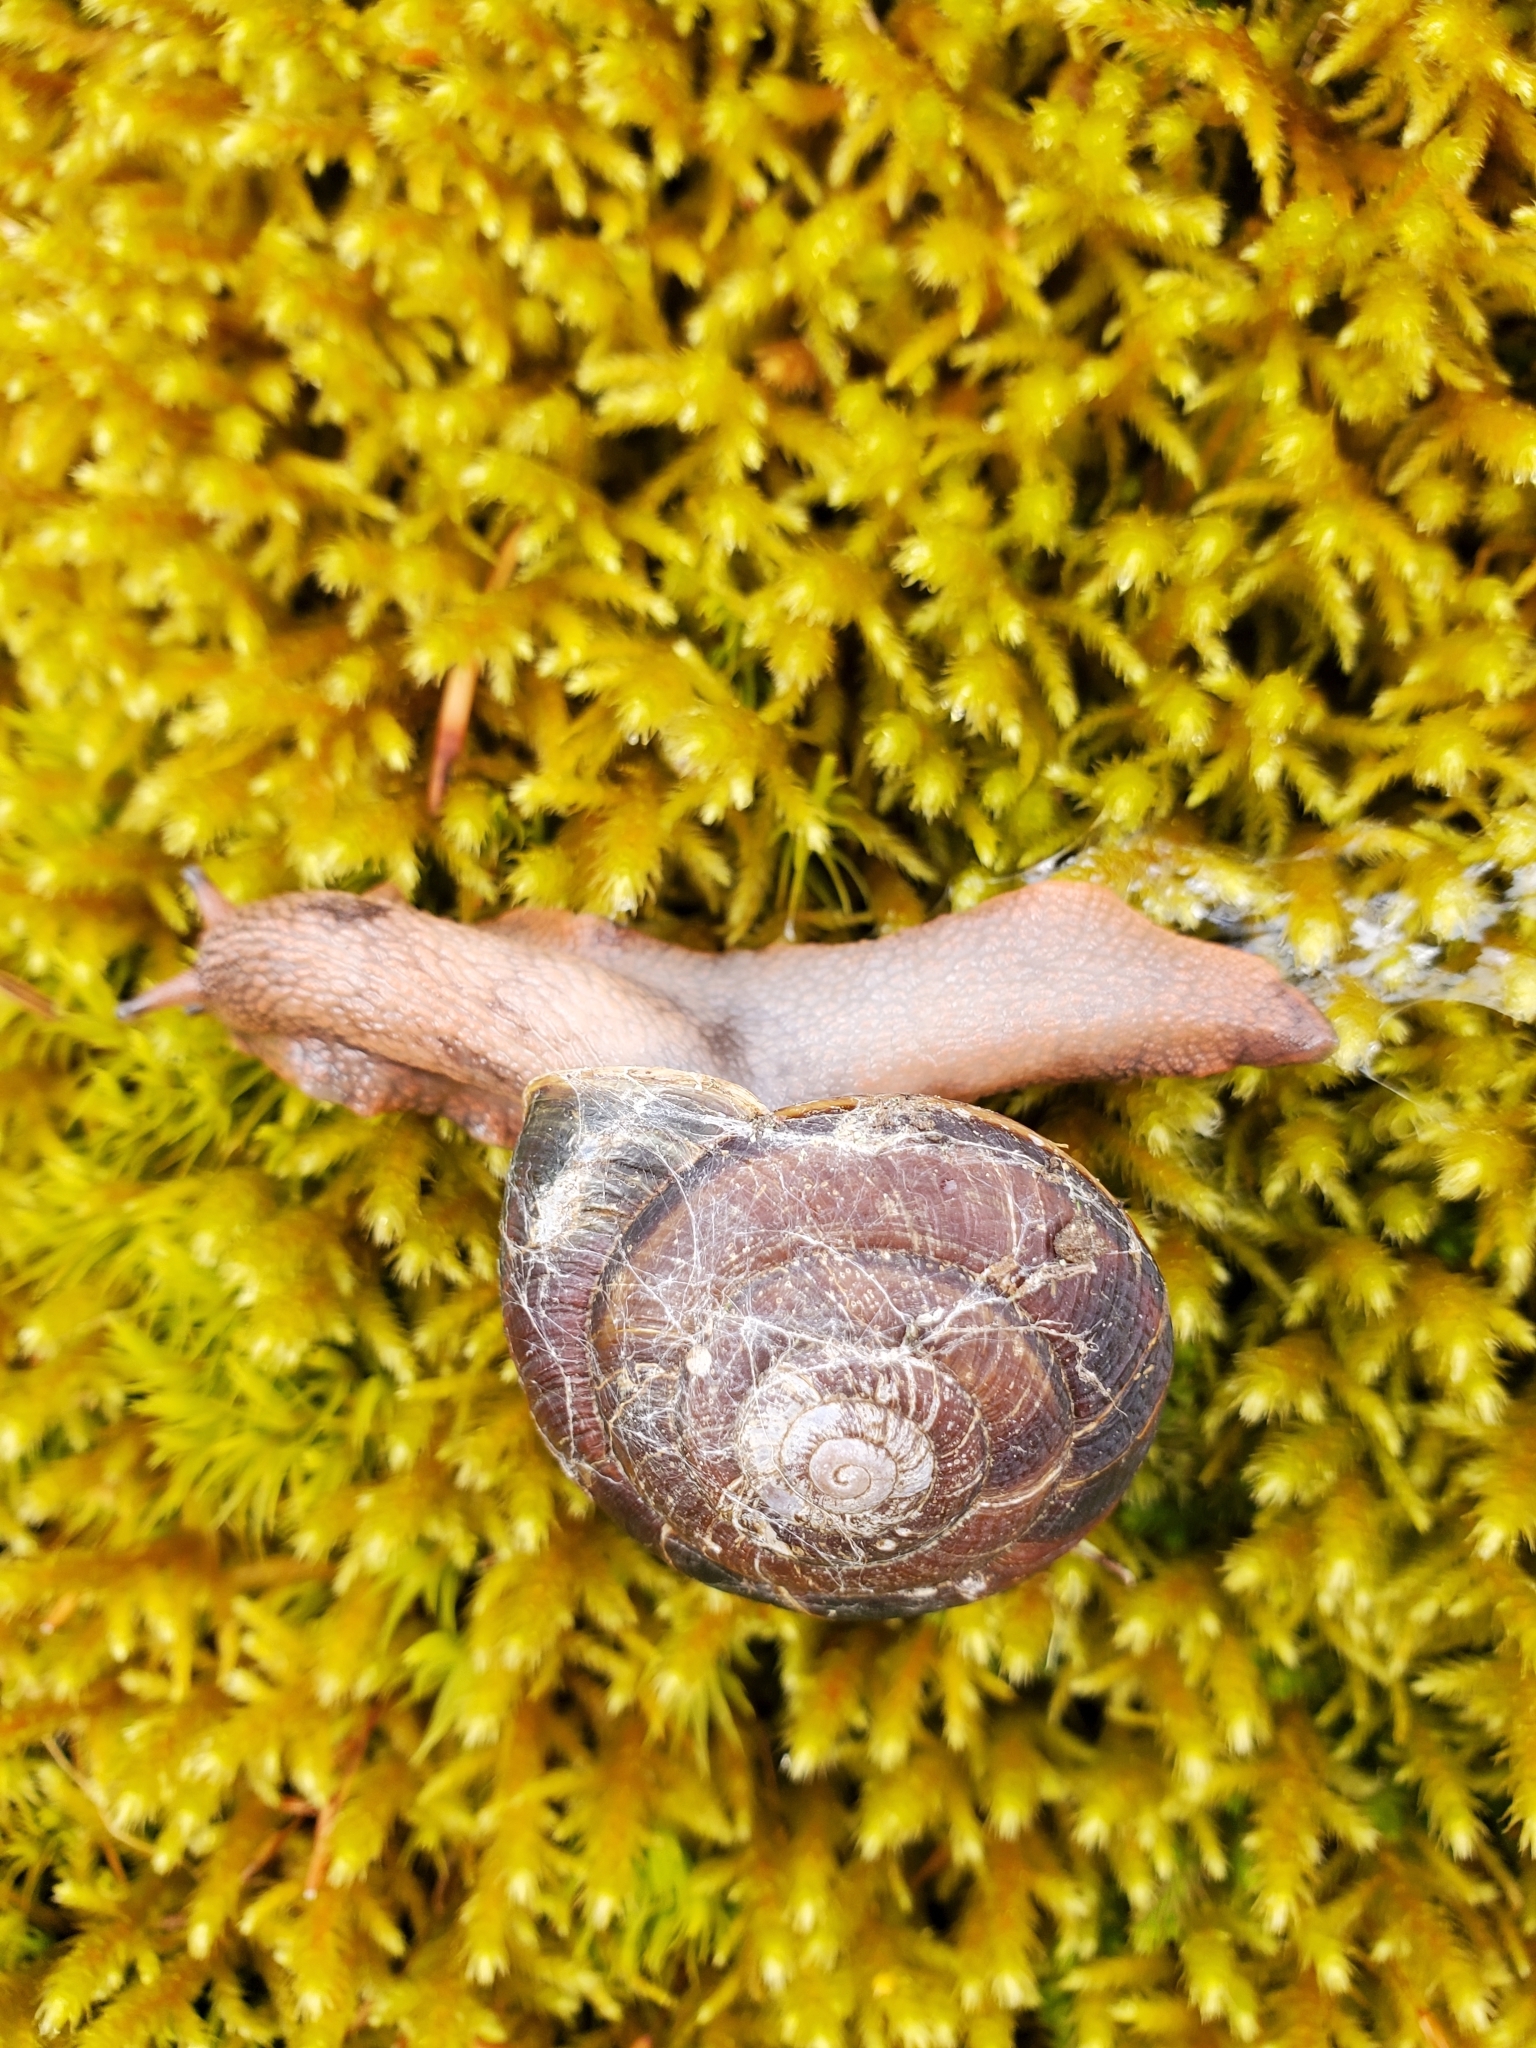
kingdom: Animalia
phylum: Mollusca
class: Gastropoda
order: Stylommatophora
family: Xanthonychidae
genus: Monadenia
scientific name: Monadenia fidelis
